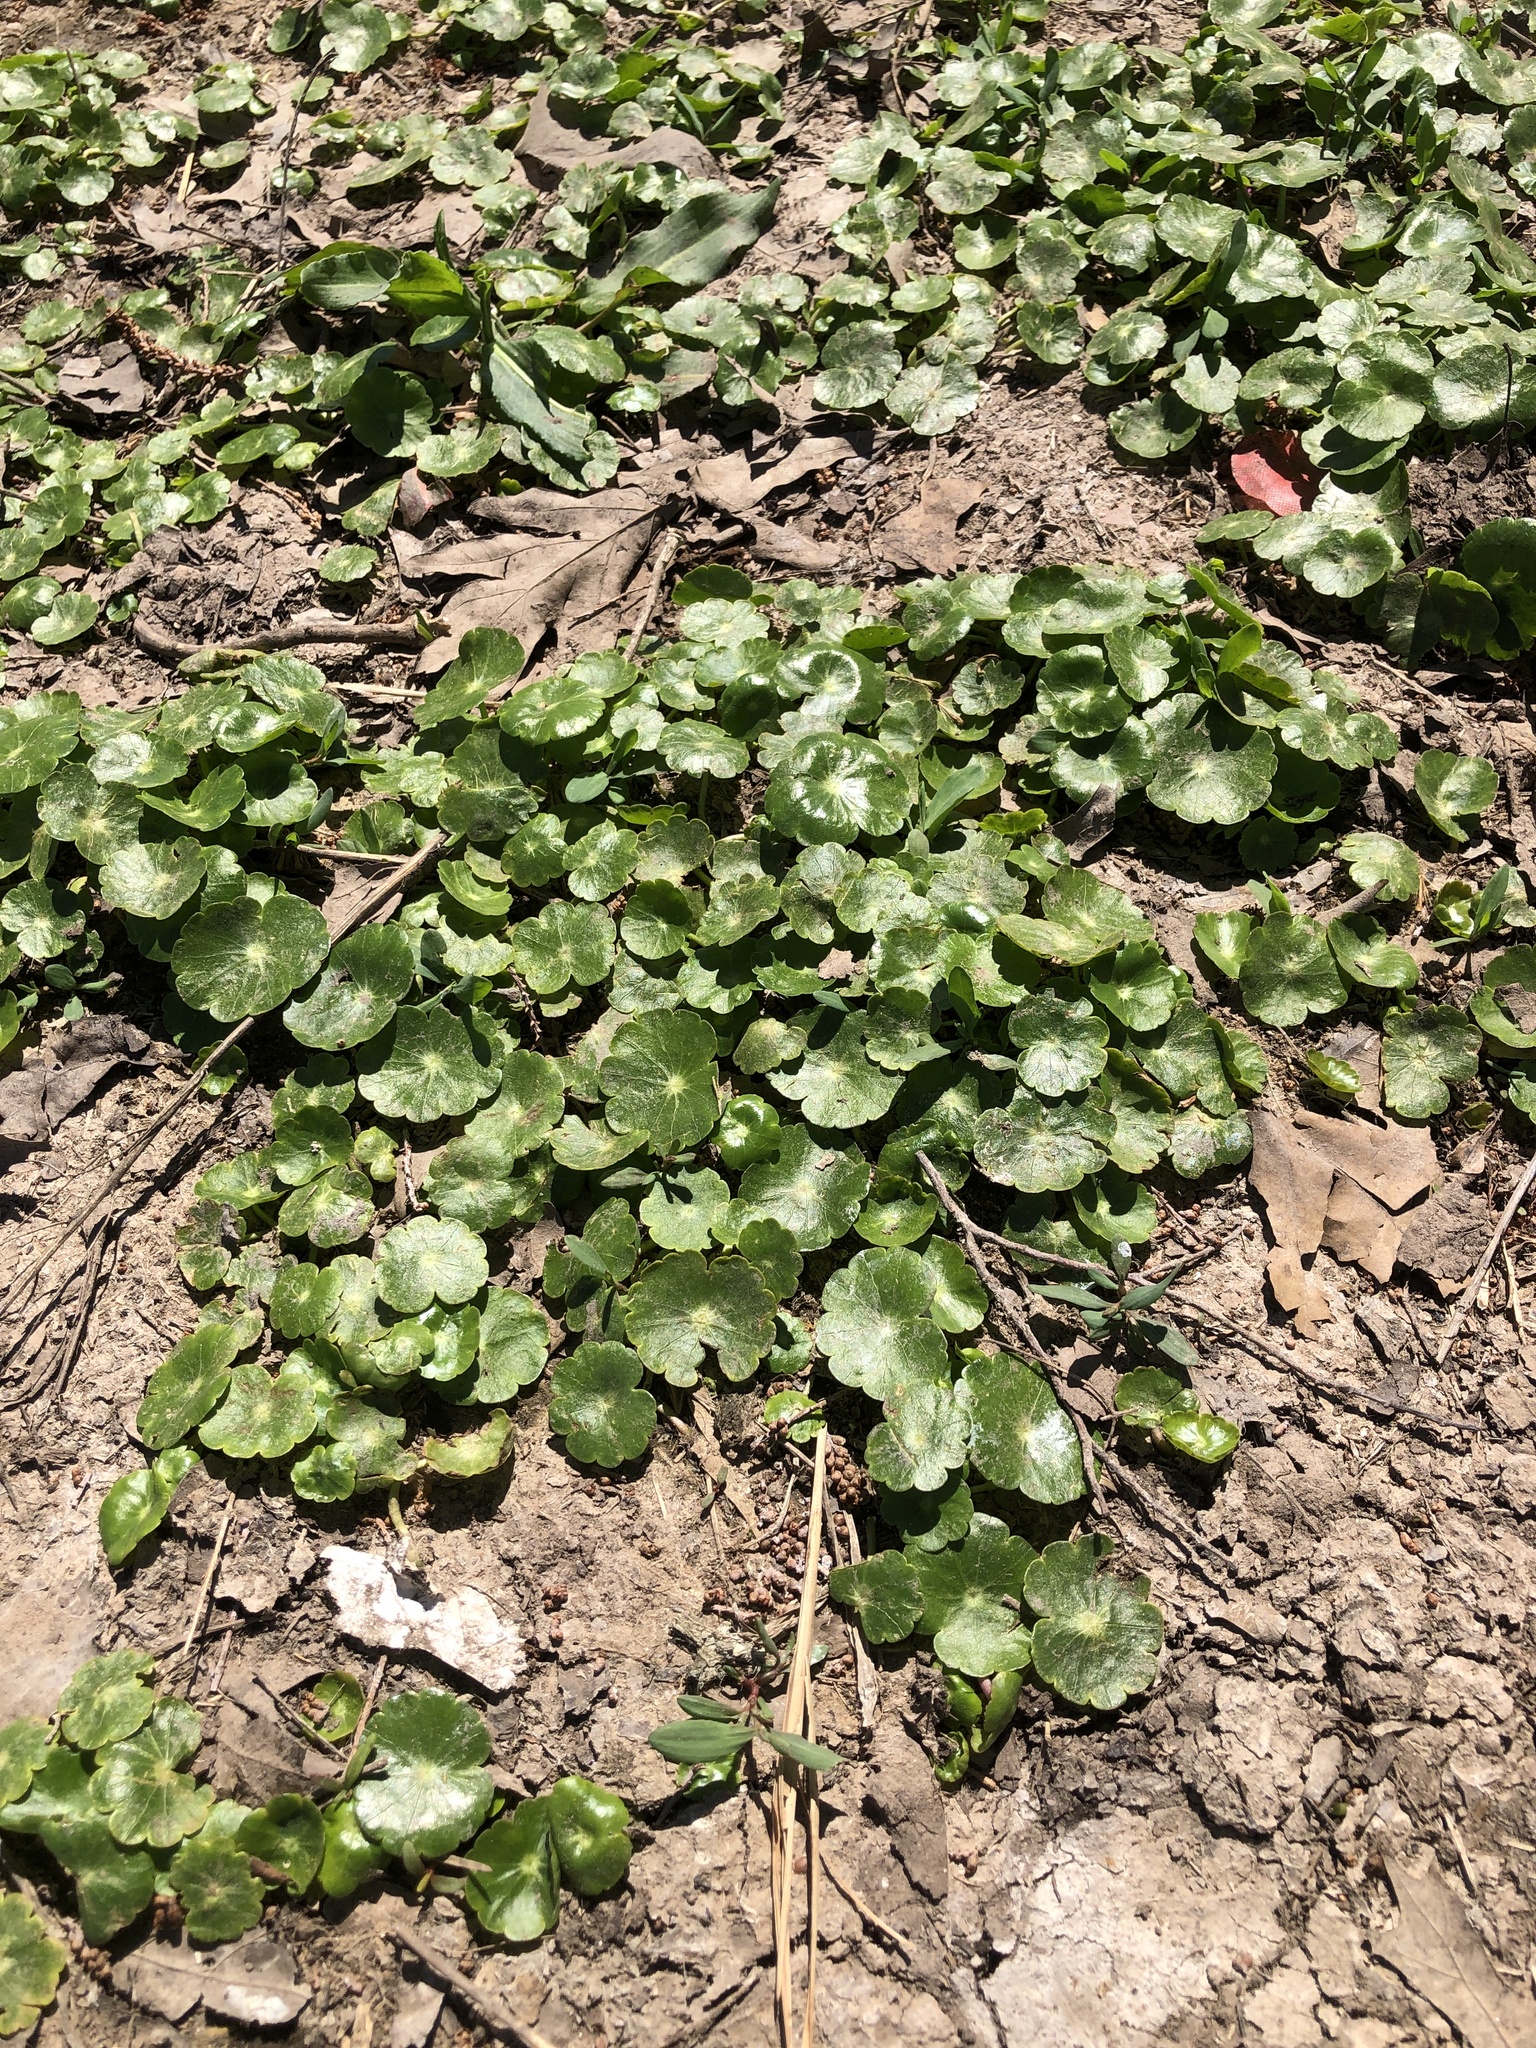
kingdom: Plantae
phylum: Tracheophyta
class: Magnoliopsida
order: Apiales
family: Araliaceae
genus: Hydrocotyle
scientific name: Hydrocotyle
